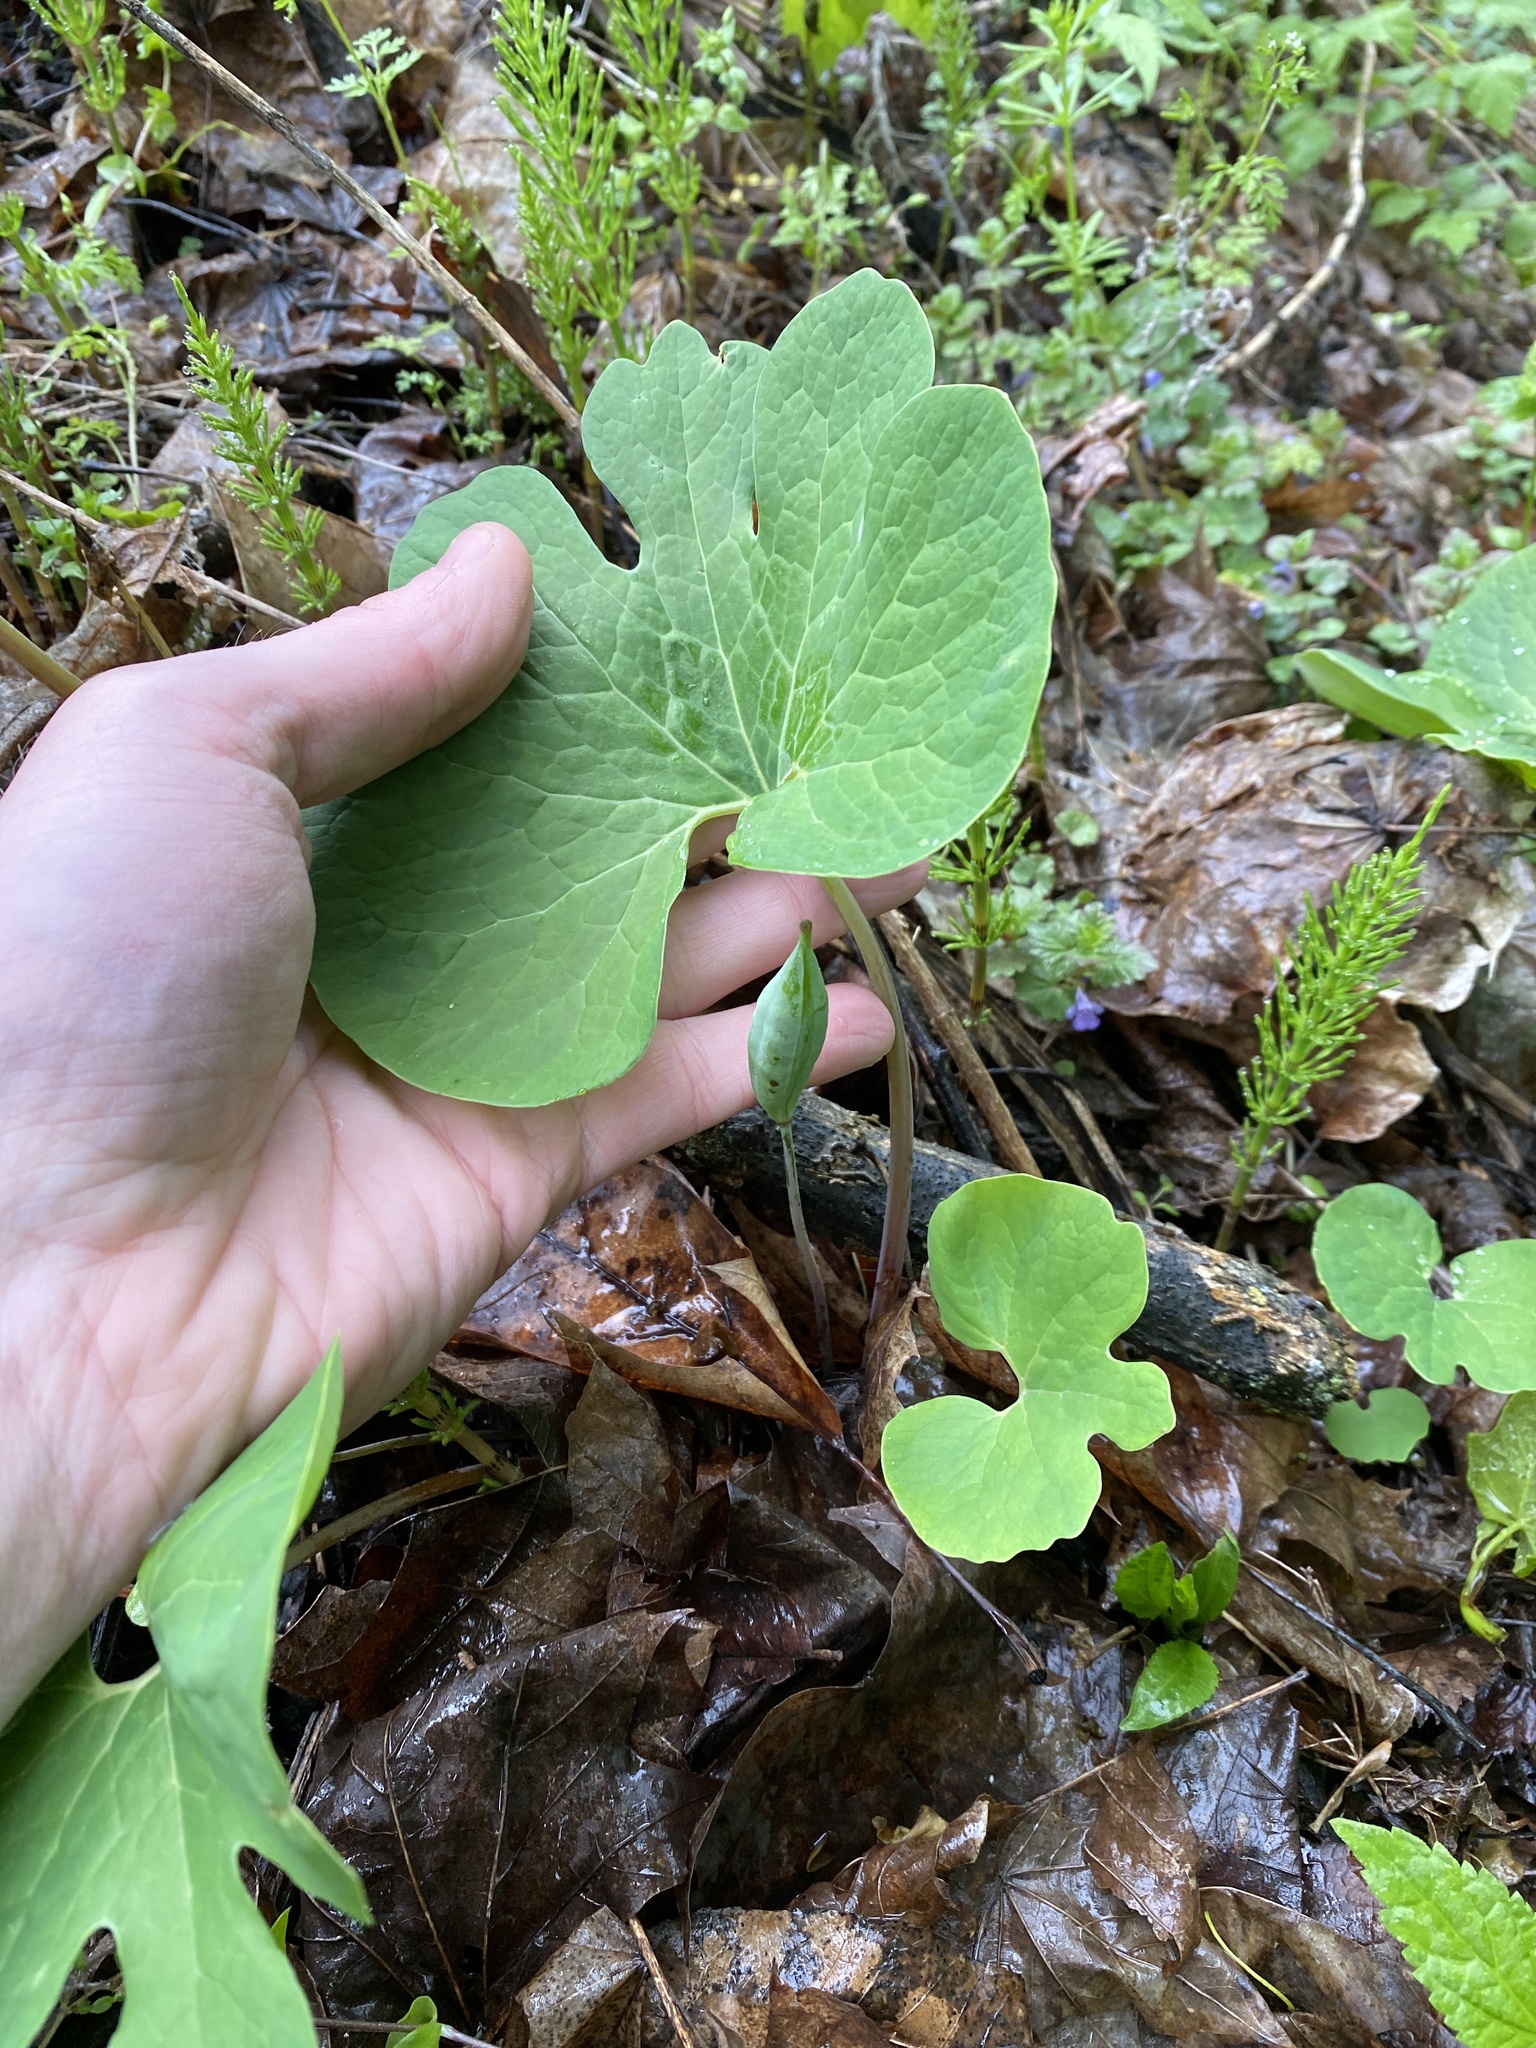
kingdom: Plantae
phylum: Tracheophyta
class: Magnoliopsida
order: Ranunculales
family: Papaveraceae
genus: Sanguinaria
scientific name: Sanguinaria canadensis
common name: Bloodroot
